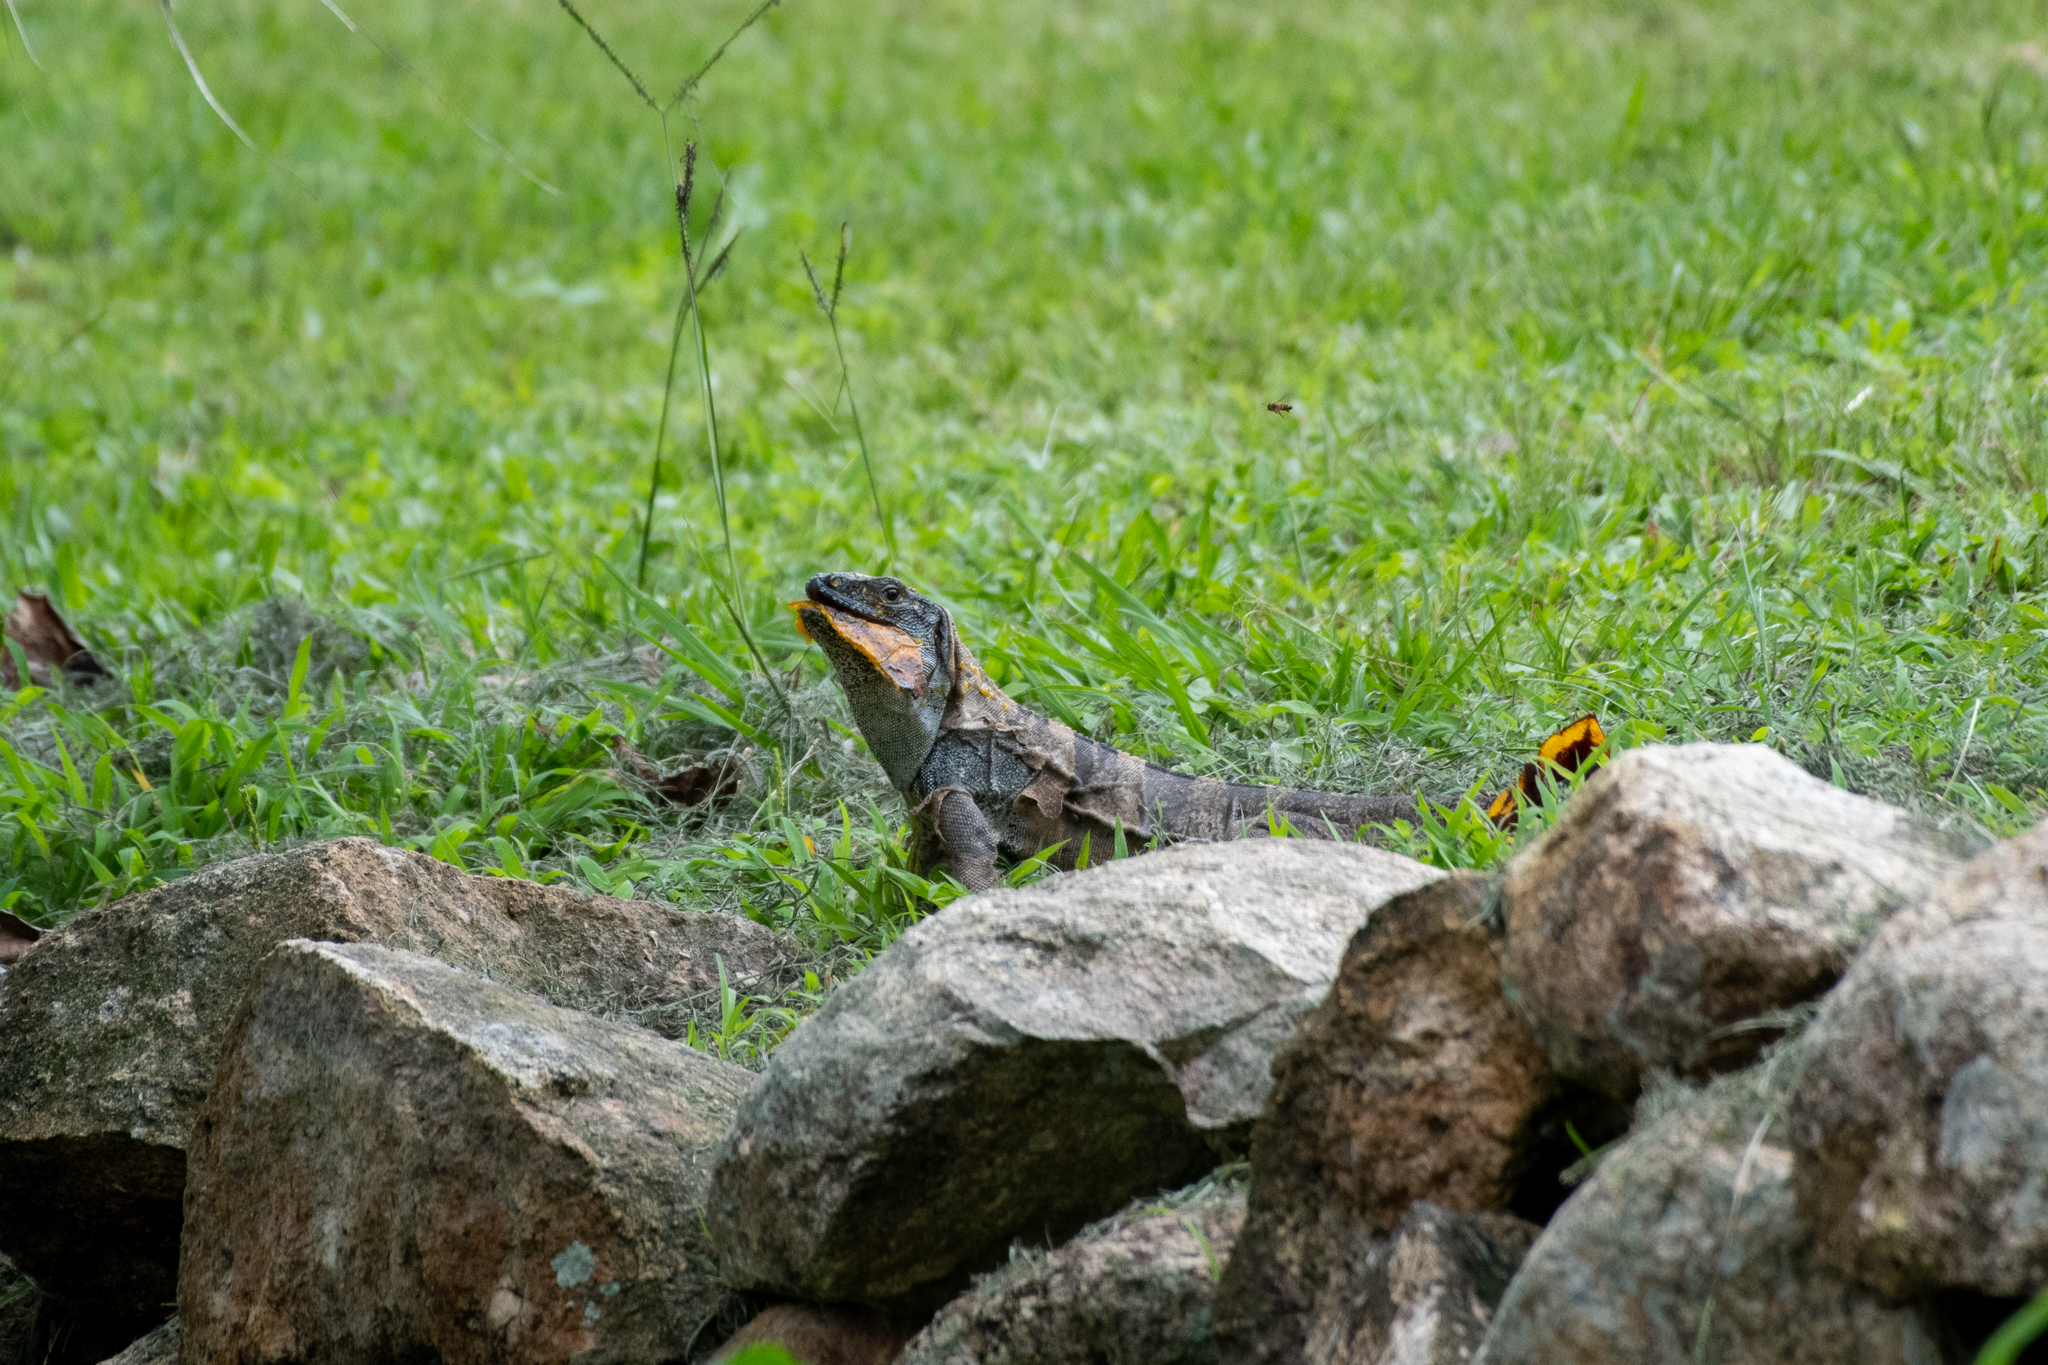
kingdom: Animalia
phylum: Chordata
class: Squamata
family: Iguanidae
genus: Ctenosaura
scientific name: Ctenosaura similis
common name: Black spiny-tailed iguana
